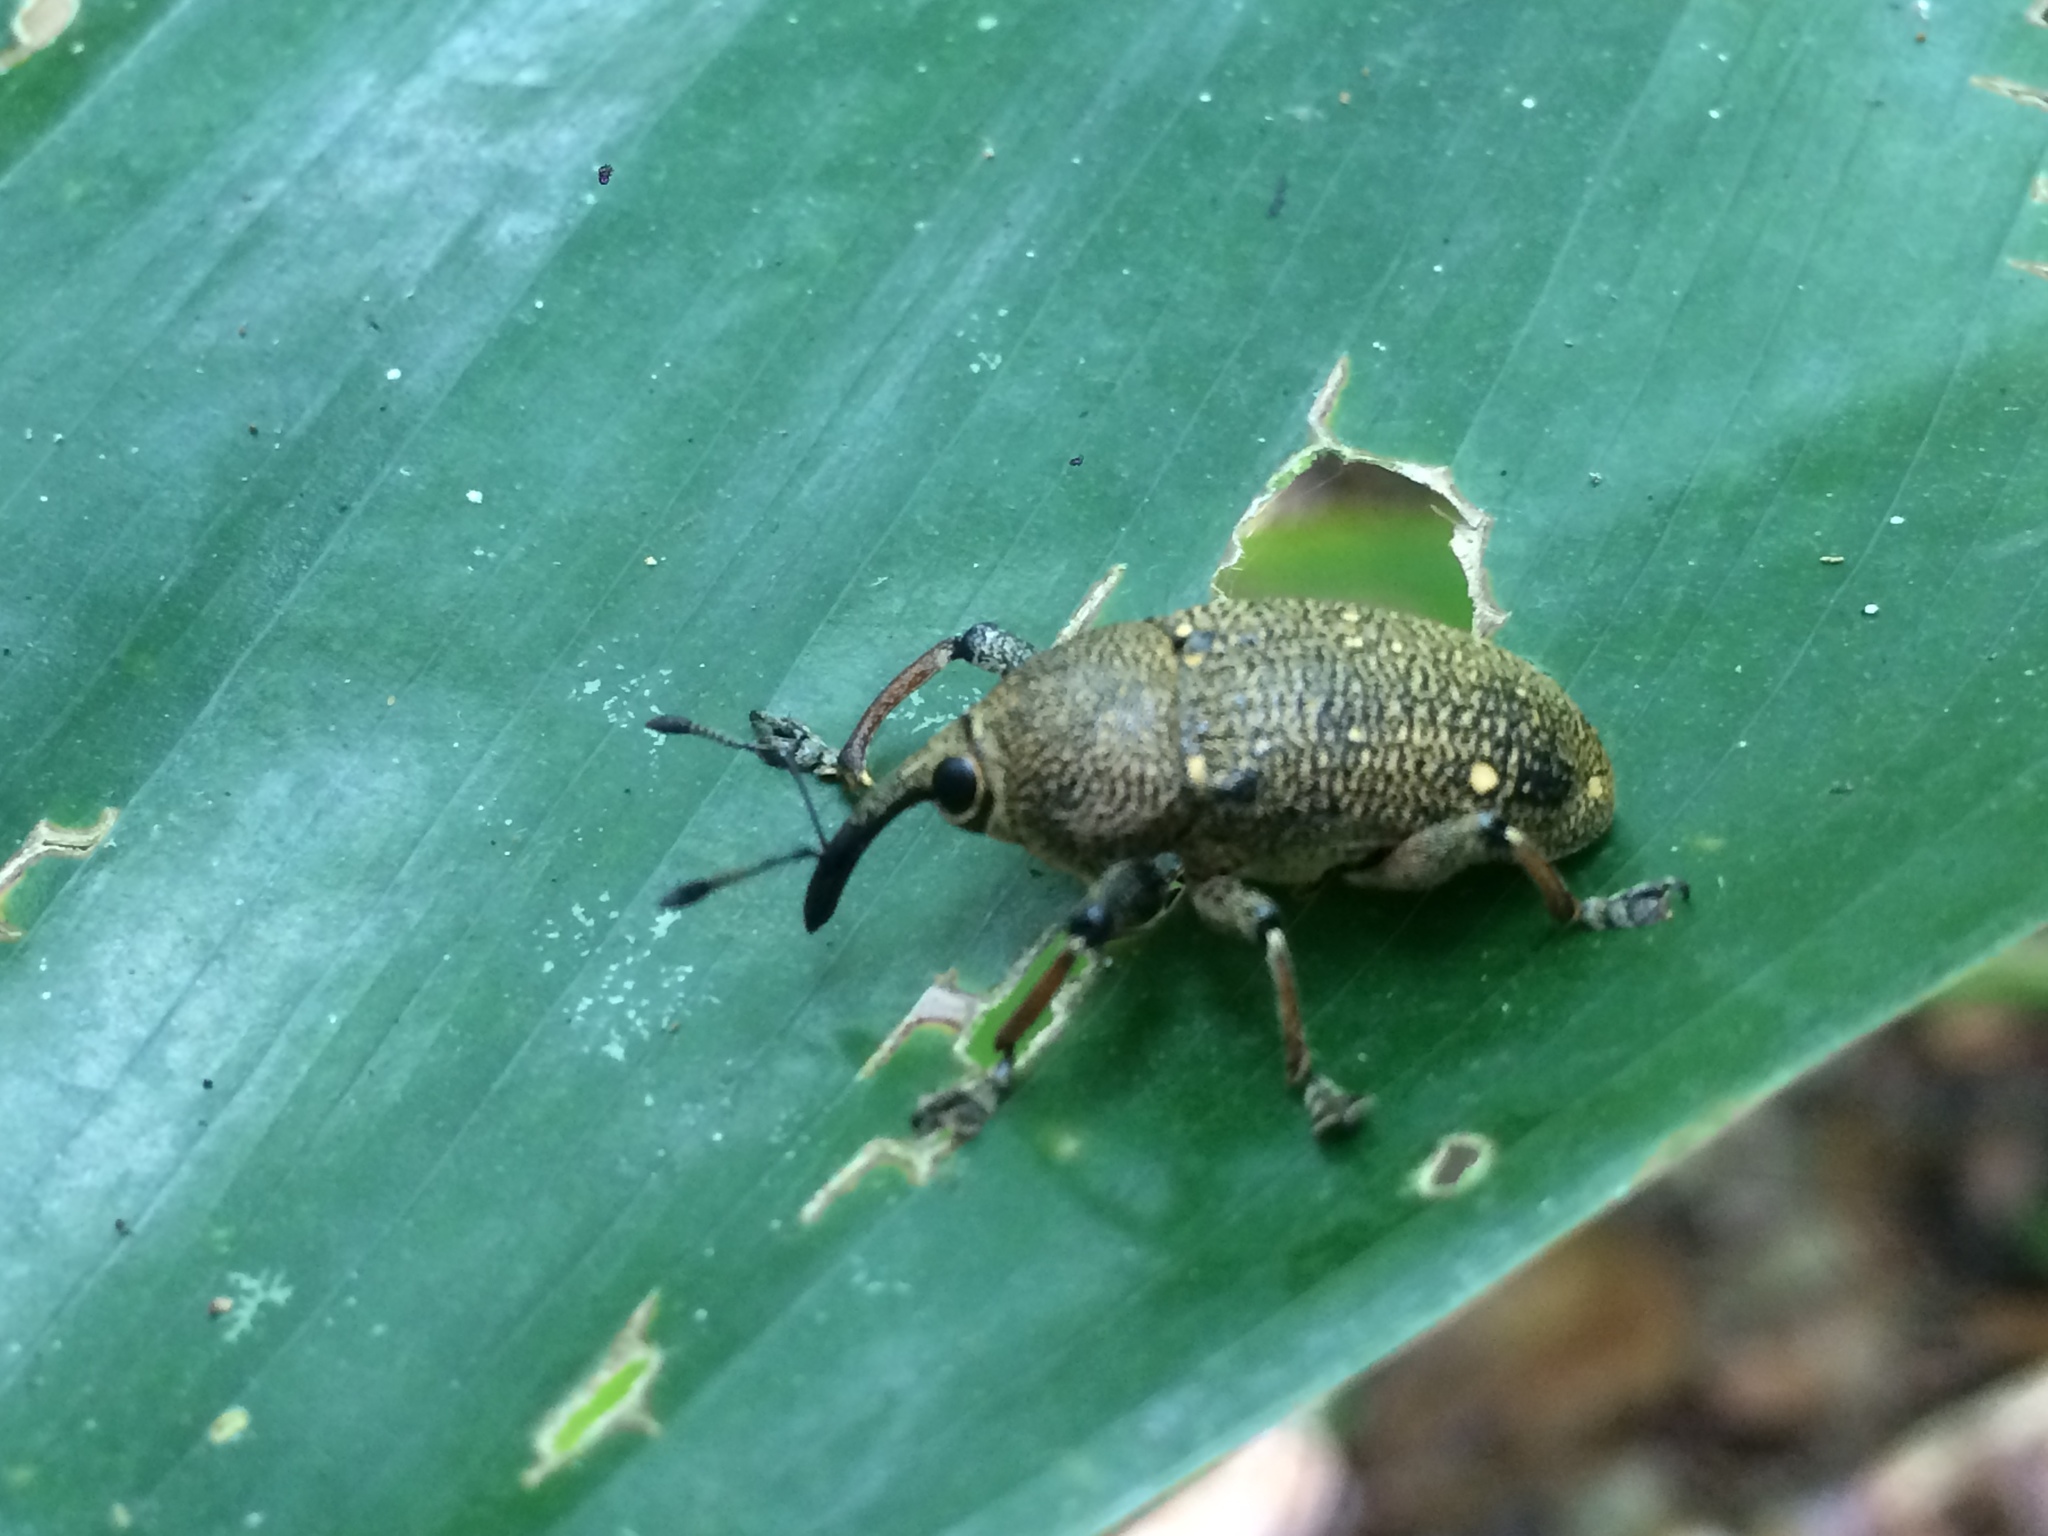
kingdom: Animalia
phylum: Arthropoda
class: Insecta
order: Coleoptera
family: Curculionidae
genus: Cholus
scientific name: Cholus alboguttatus
